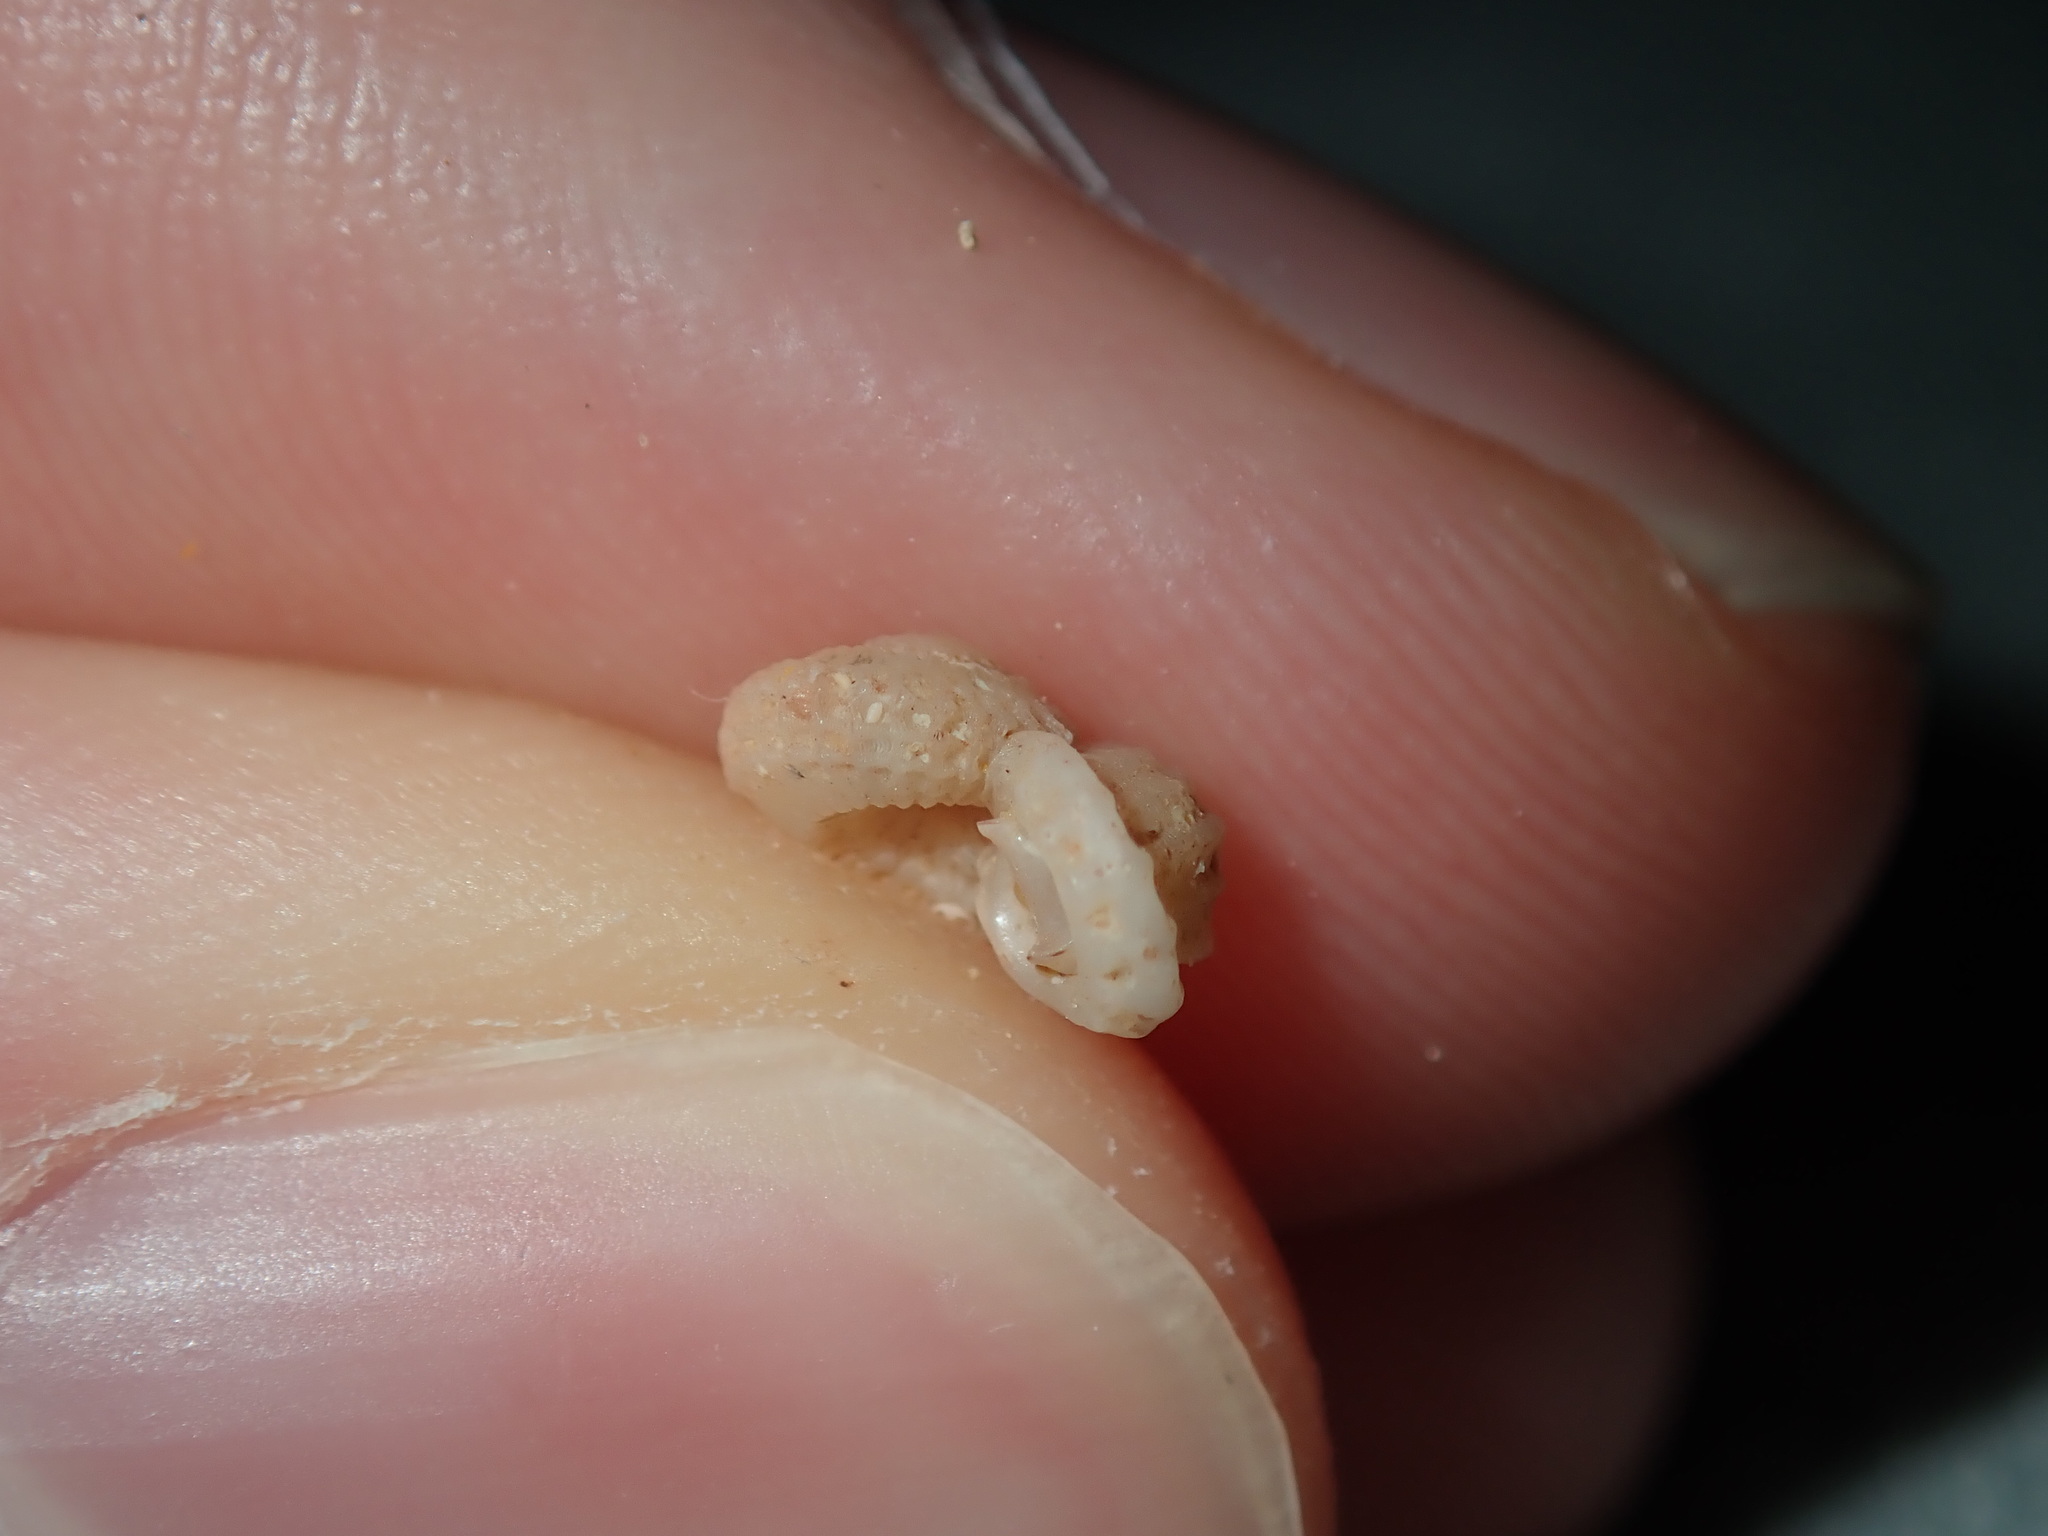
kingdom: Animalia
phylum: Mollusca
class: Gastropoda
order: Trochida
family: Liotiidae
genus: Austroliotia
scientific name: Austroliotia botanica
